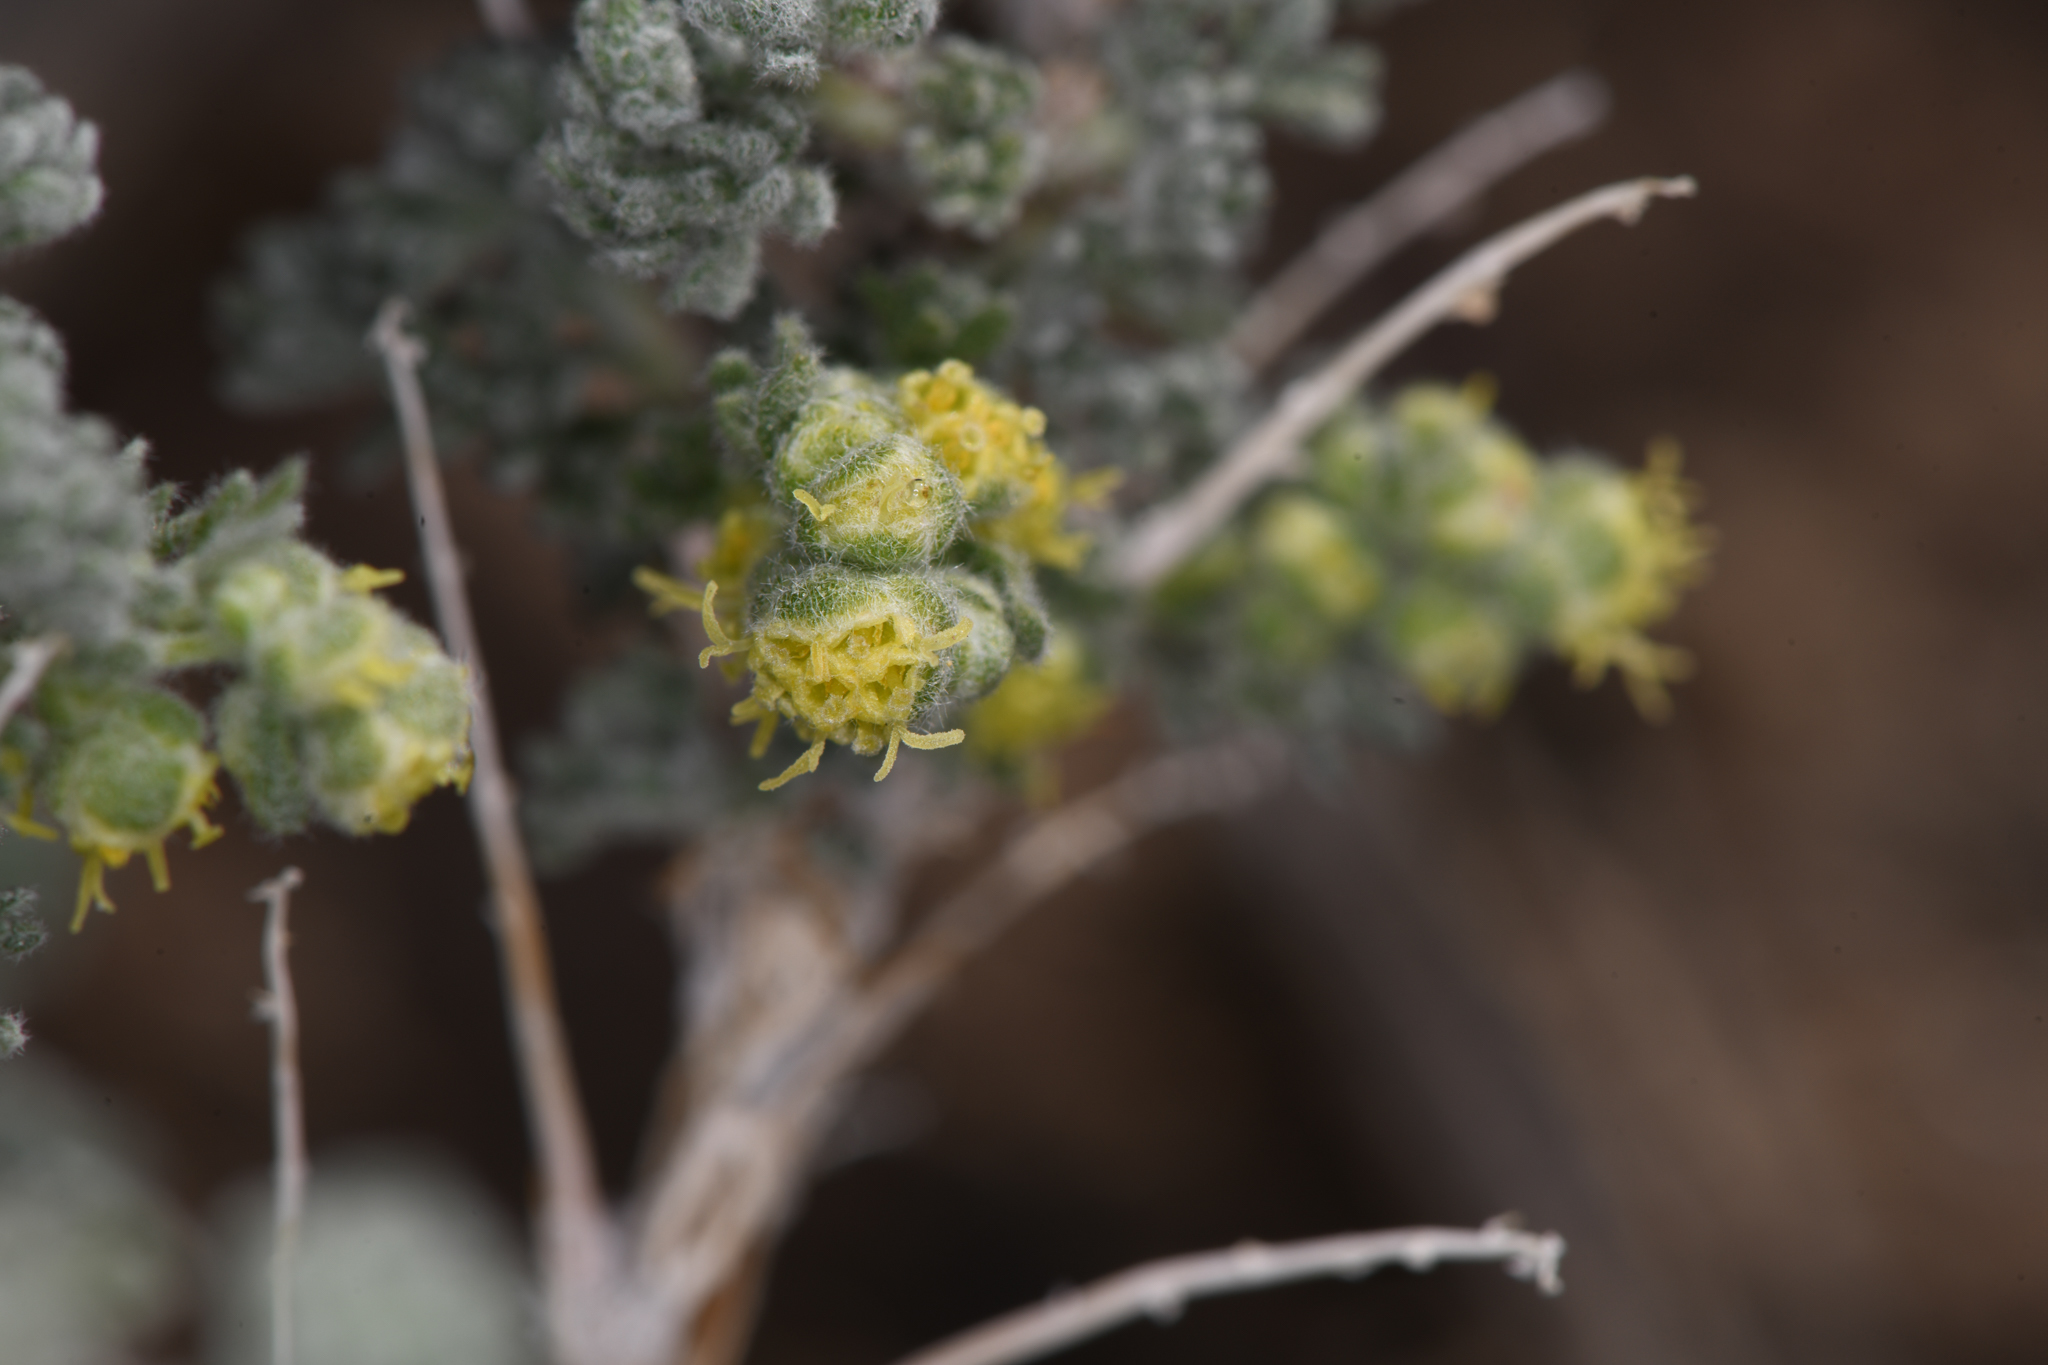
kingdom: Plantae
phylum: Tracheophyta
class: Magnoliopsida
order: Asterales
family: Asteraceae
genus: Artemisia
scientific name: Artemisia spinescens
